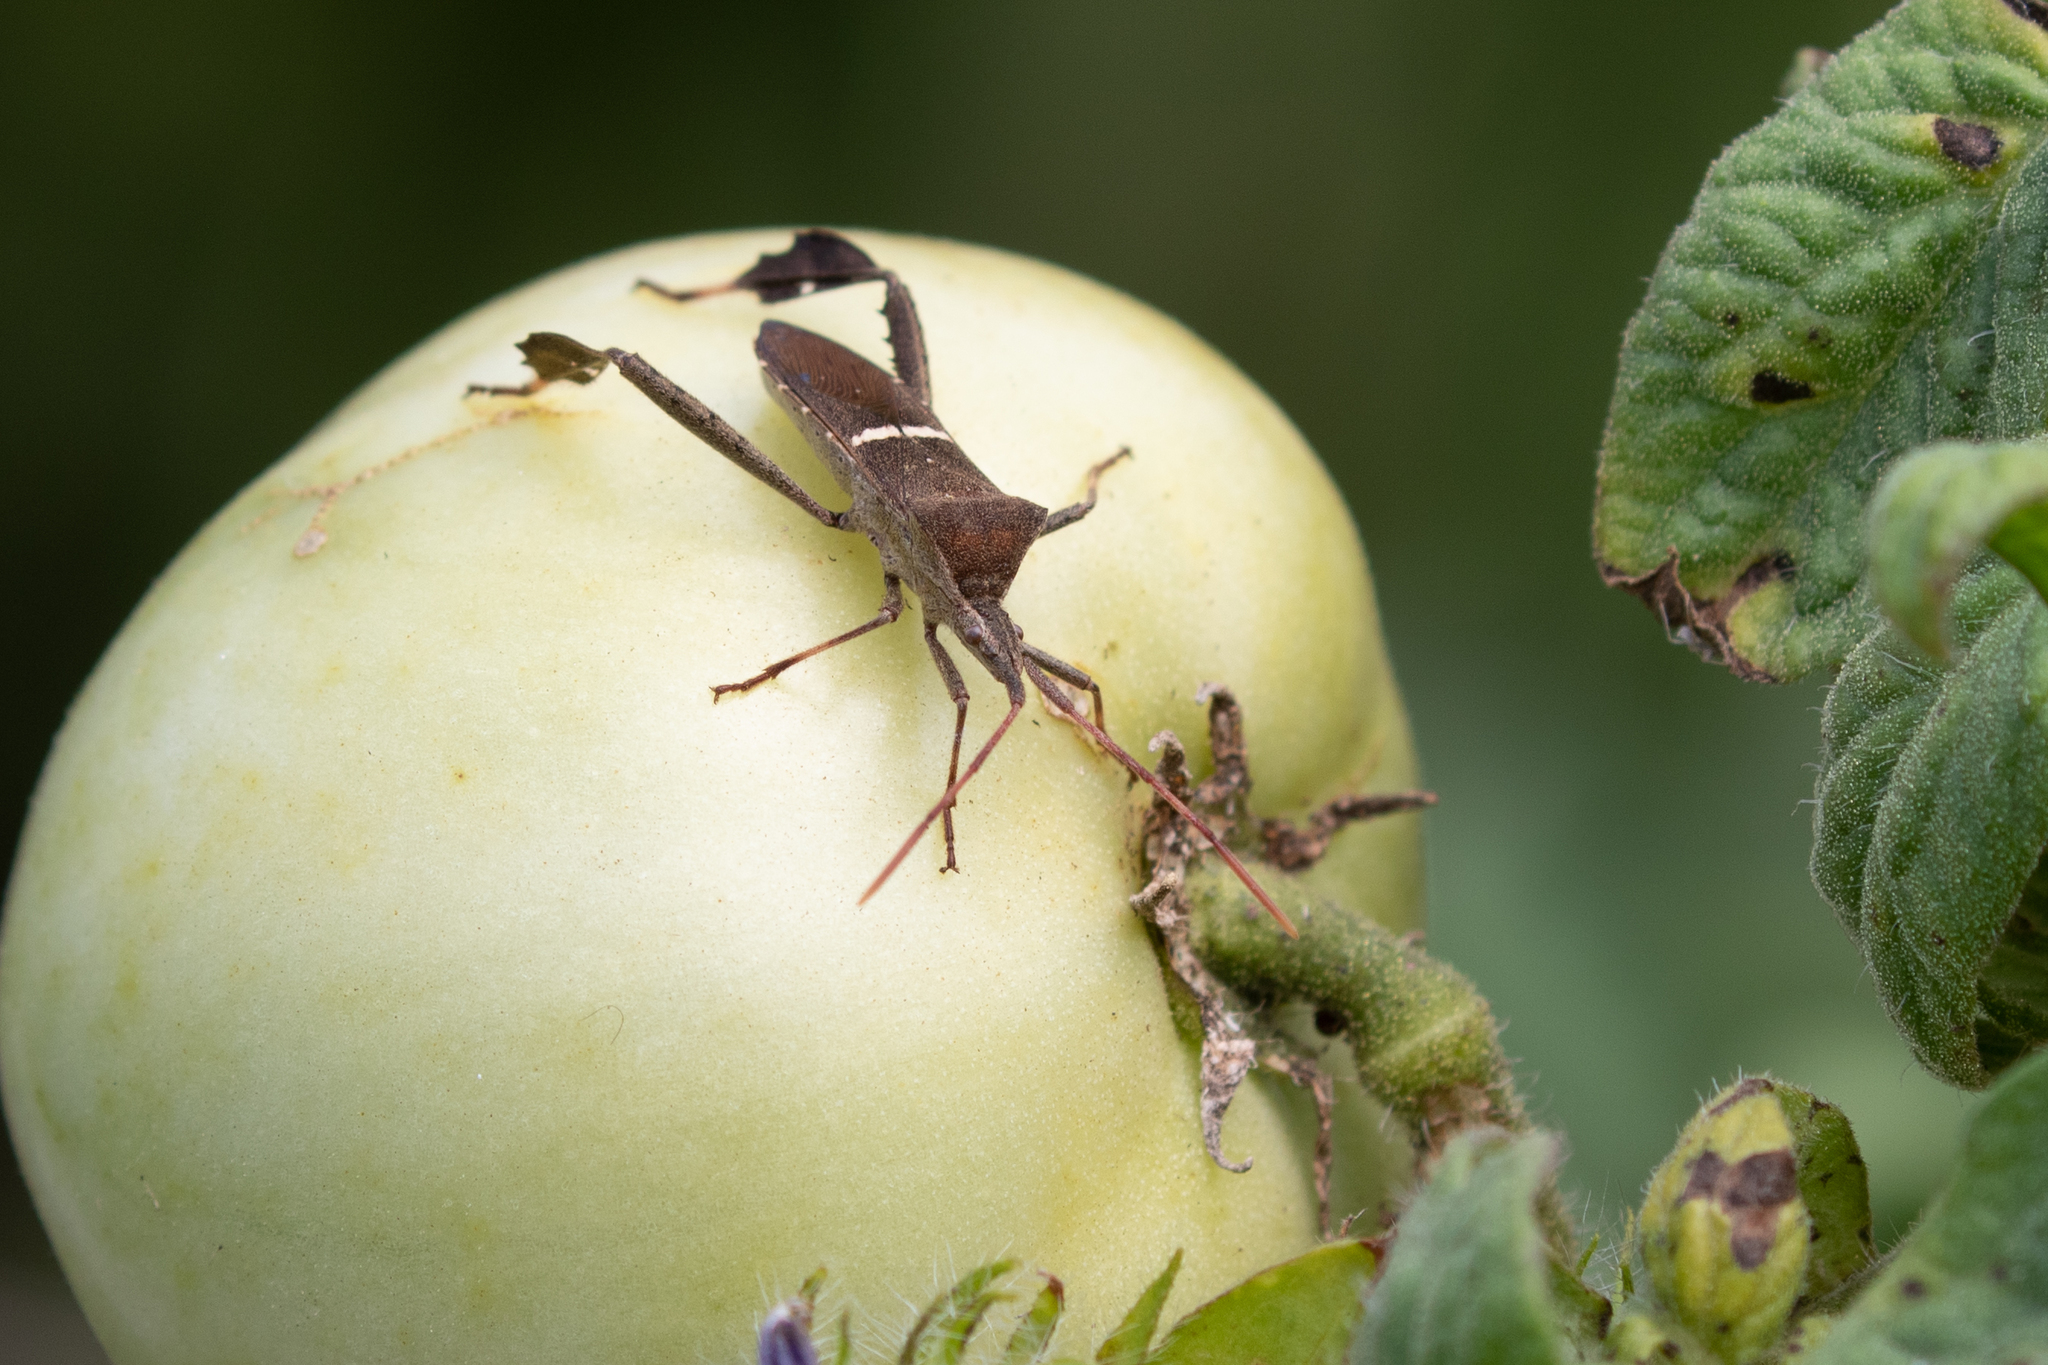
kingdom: Animalia
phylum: Arthropoda
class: Insecta
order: Hemiptera
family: Coreidae
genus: Leptoglossus
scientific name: Leptoglossus phyllopus
